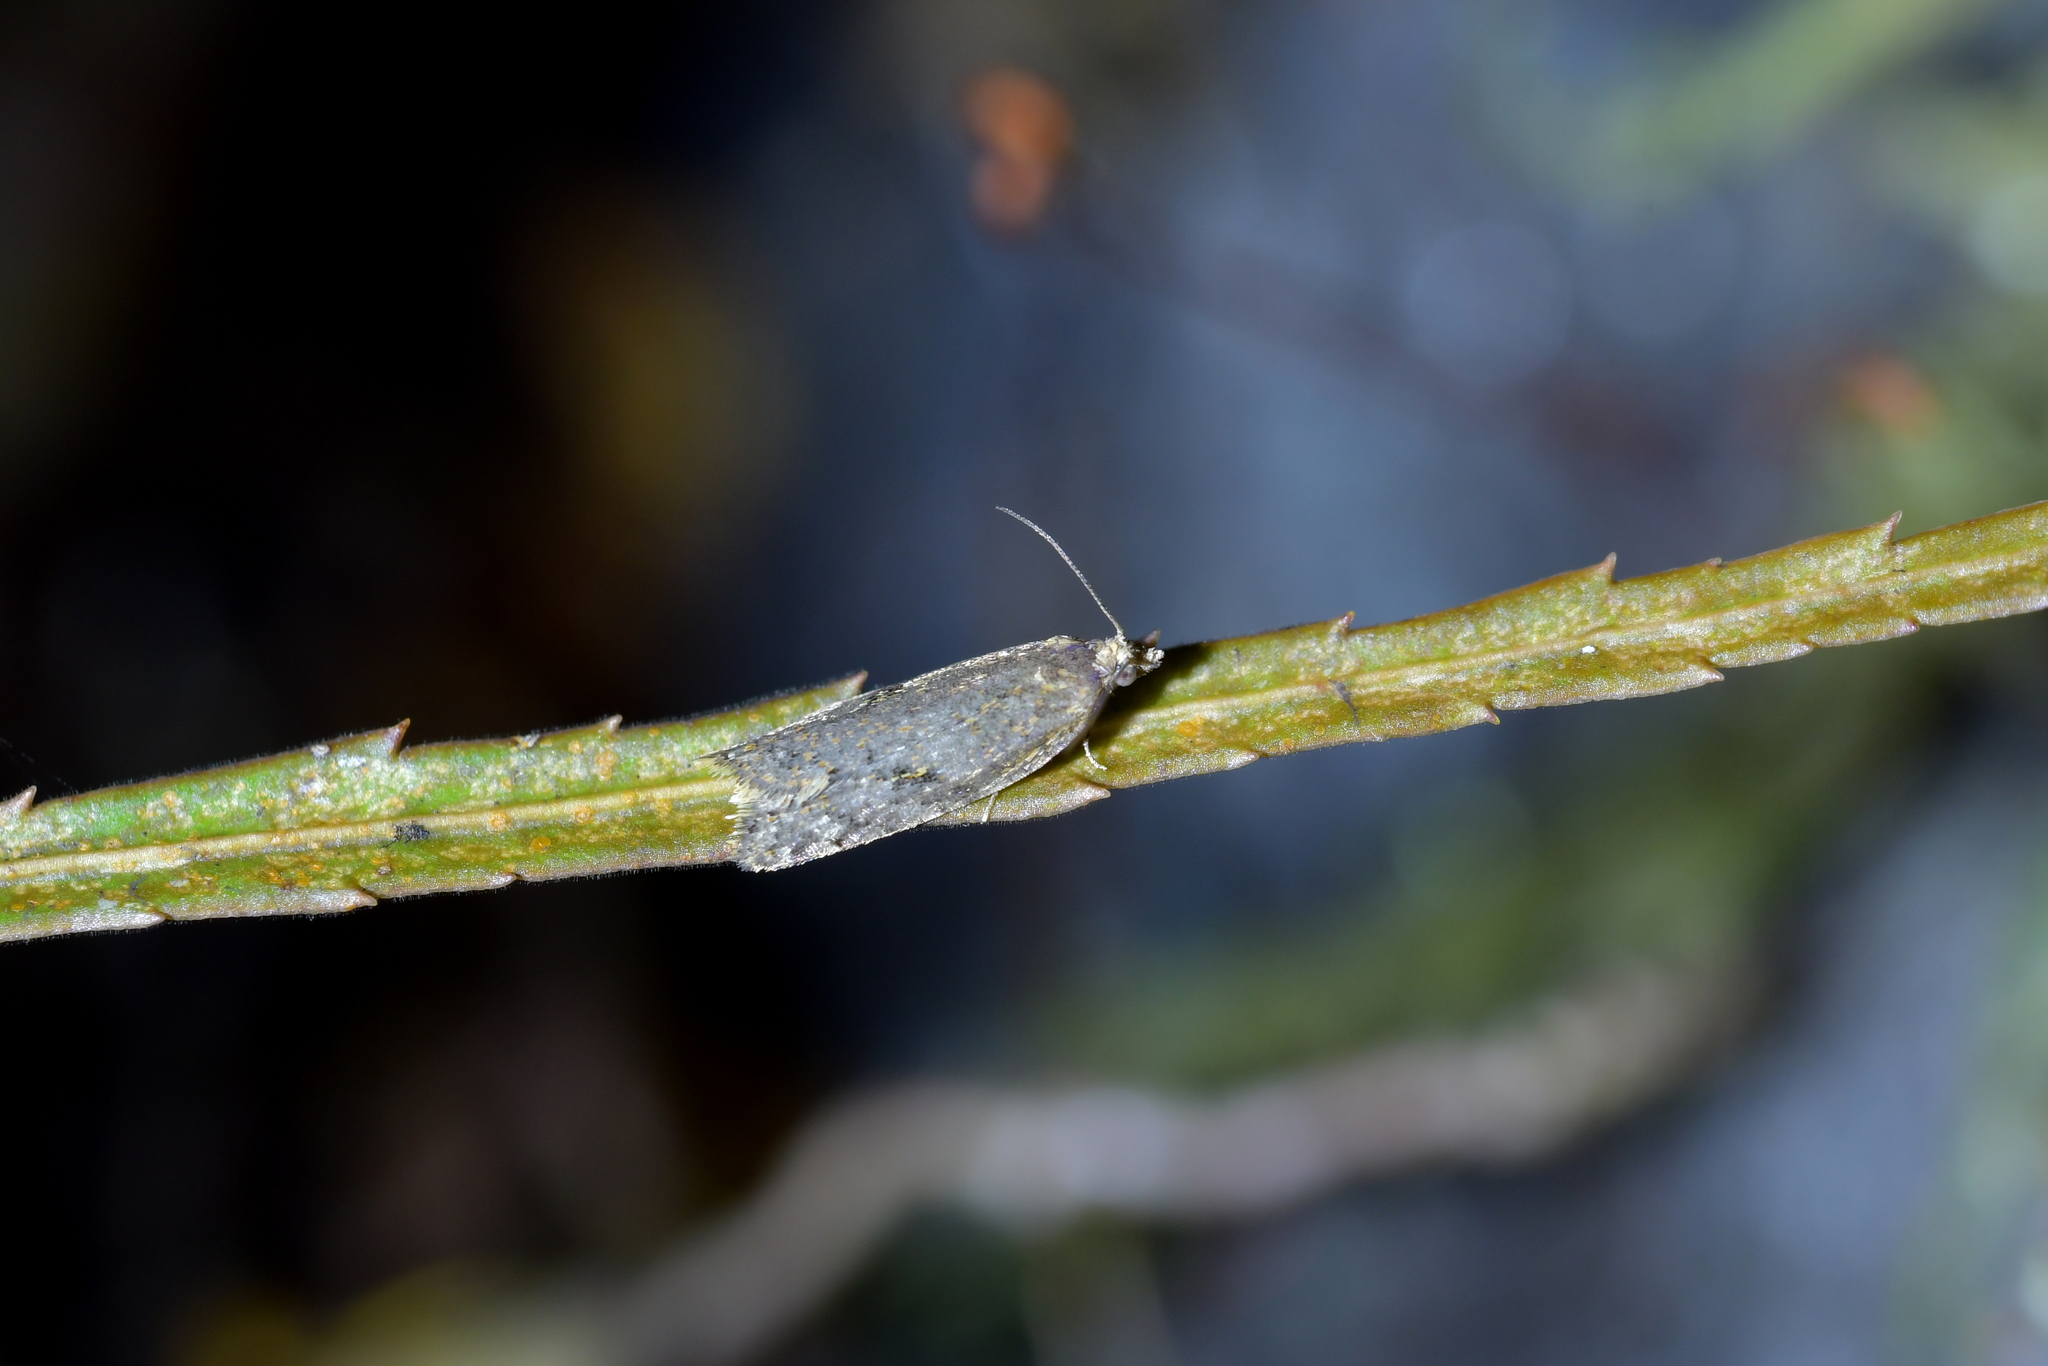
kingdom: Animalia
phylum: Arthropoda
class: Insecta
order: Lepidoptera
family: Tortricidae
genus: Capua
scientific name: Capua semiferana
